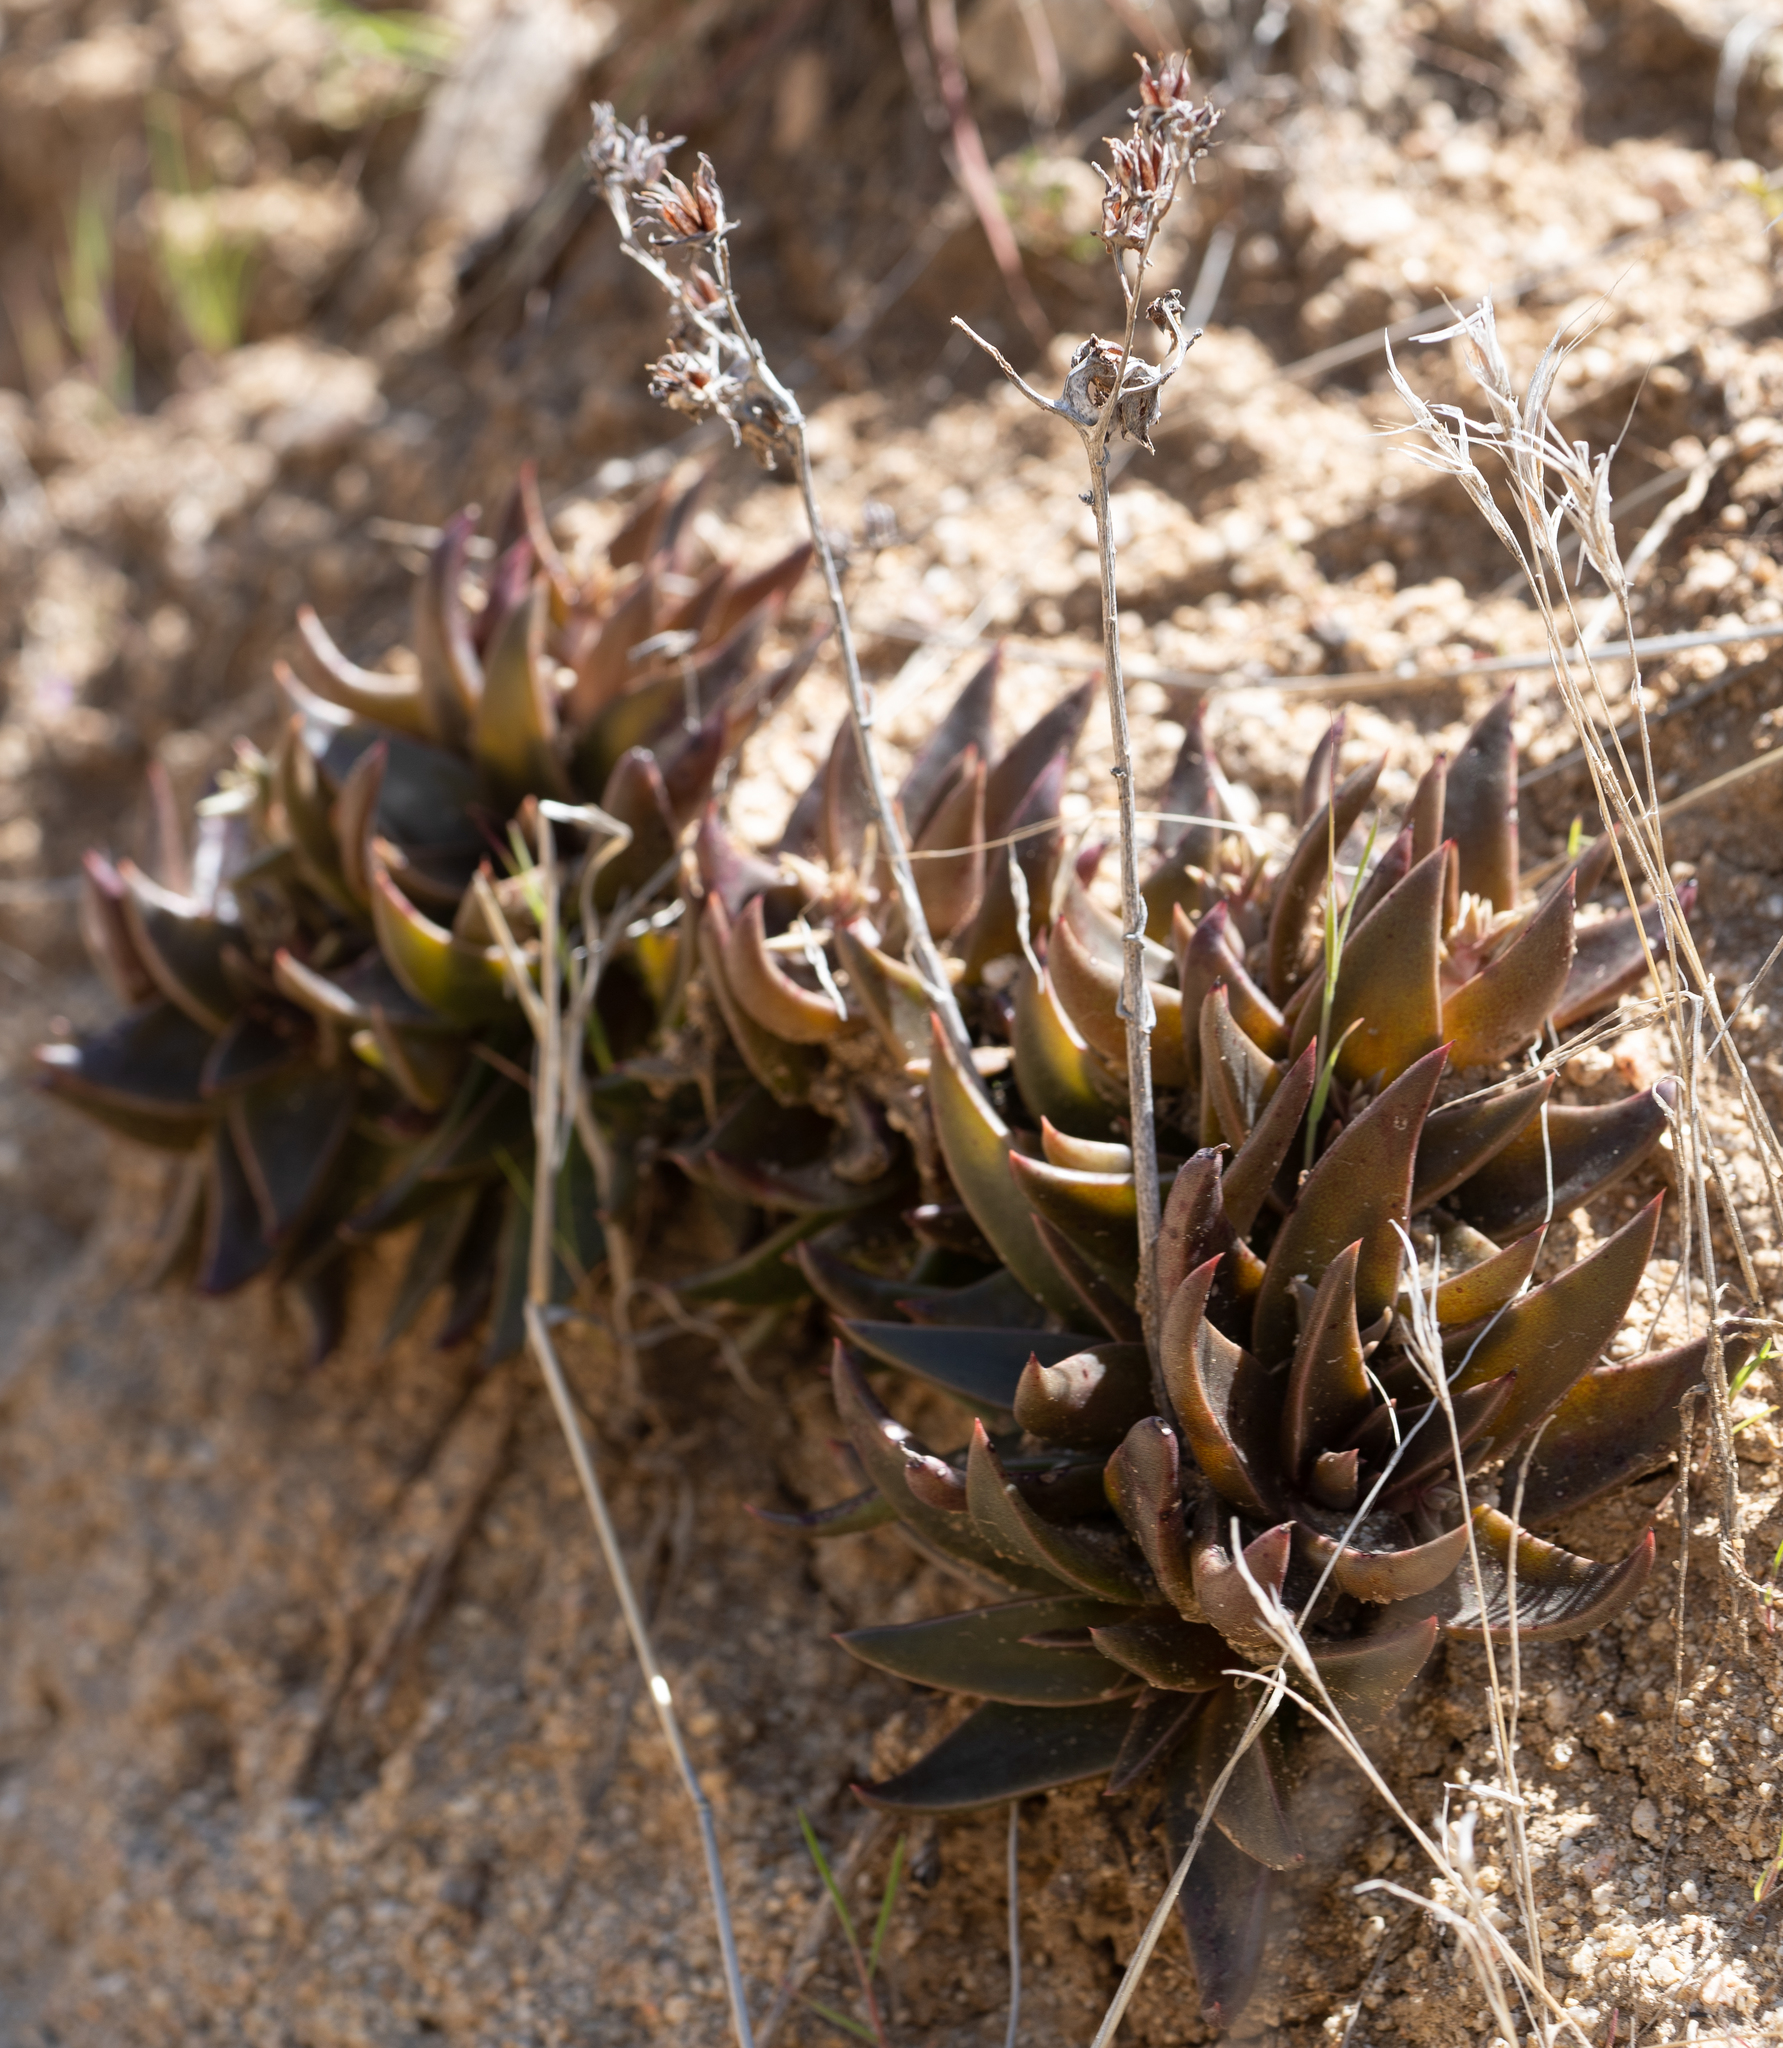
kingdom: Plantae
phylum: Tracheophyta
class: Magnoliopsida
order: Saxifragales
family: Crassulaceae
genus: Dudleya
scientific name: Dudleya lanceolata
